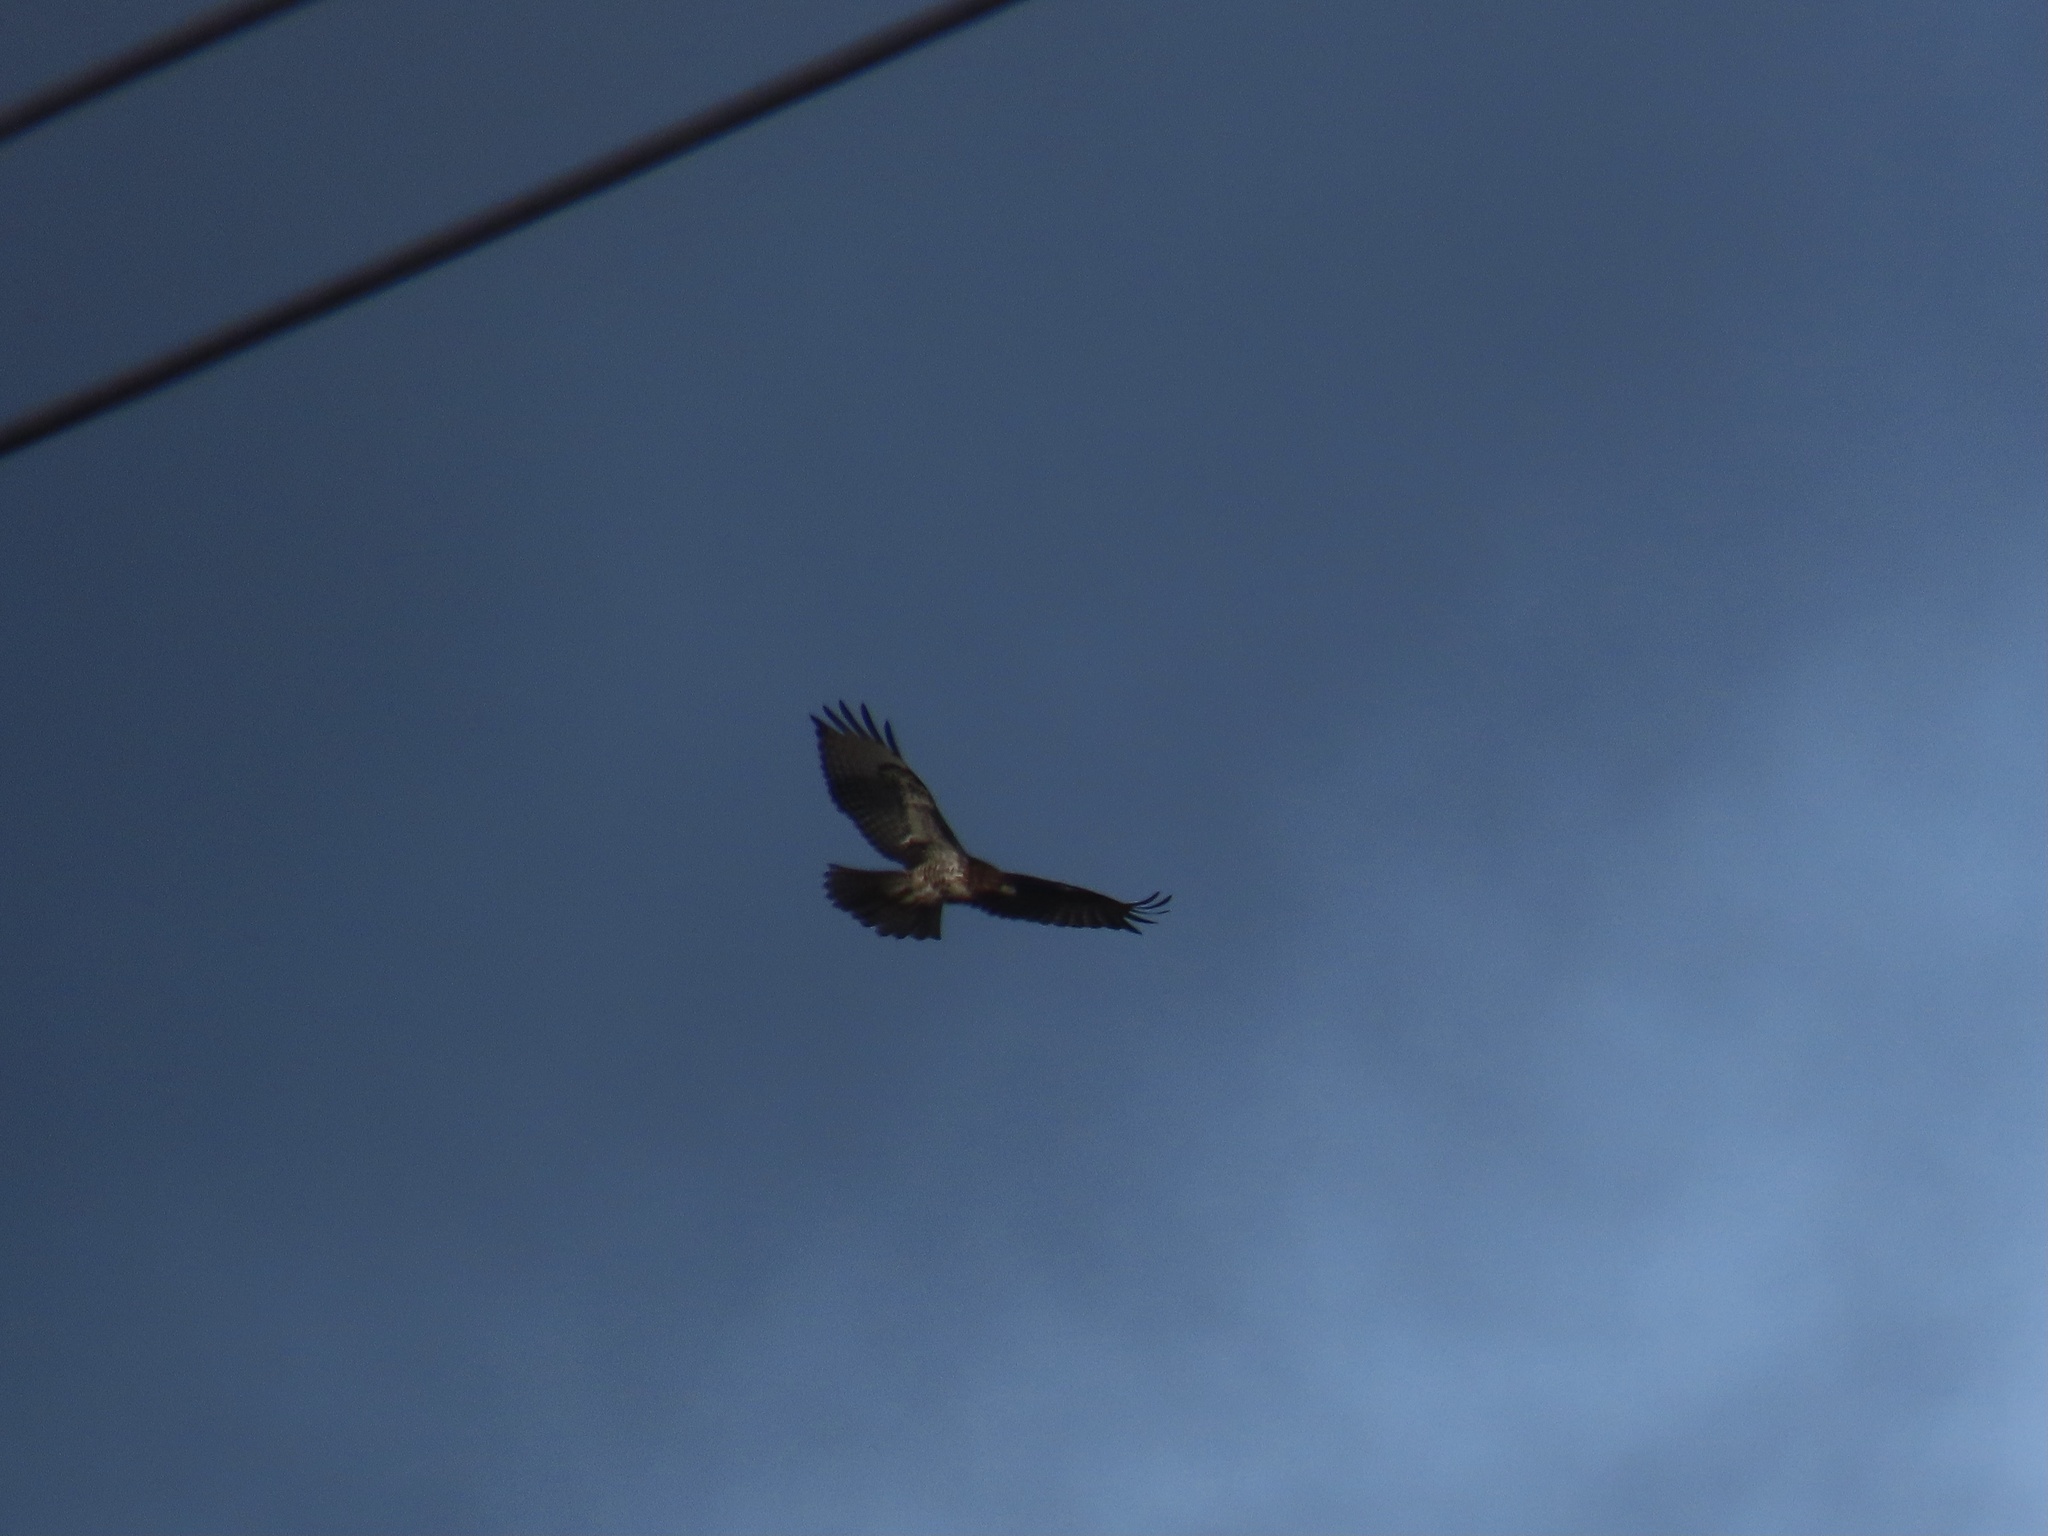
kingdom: Animalia
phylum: Chordata
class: Aves
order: Accipitriformes
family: Accipitridae
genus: Buteo
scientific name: Buteo jamaicensis
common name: Red-tailed hawk
